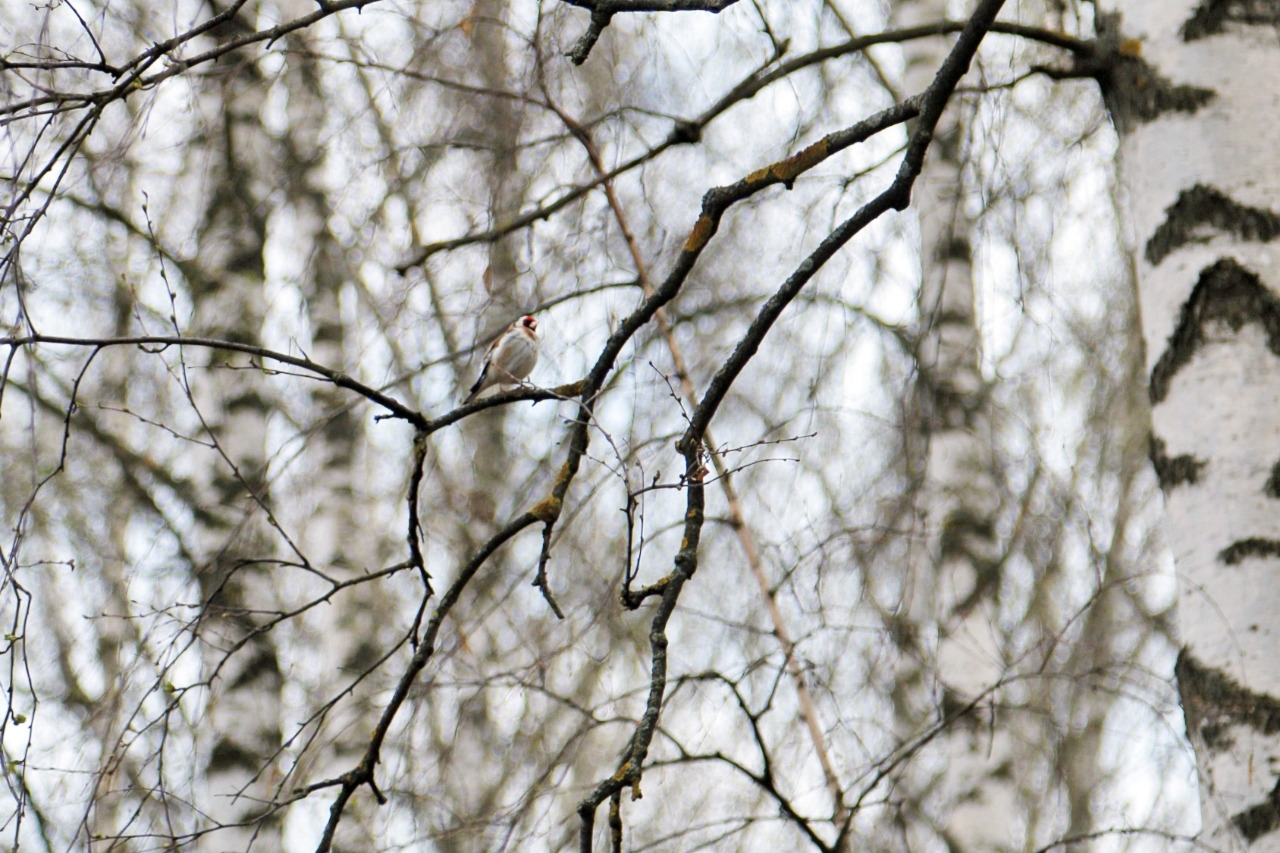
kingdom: Animalia
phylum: Chordata
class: Aves
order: Passeriformes
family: Fringillidae
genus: Carduelis
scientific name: Carduelis carduelis
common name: European goldfinch
